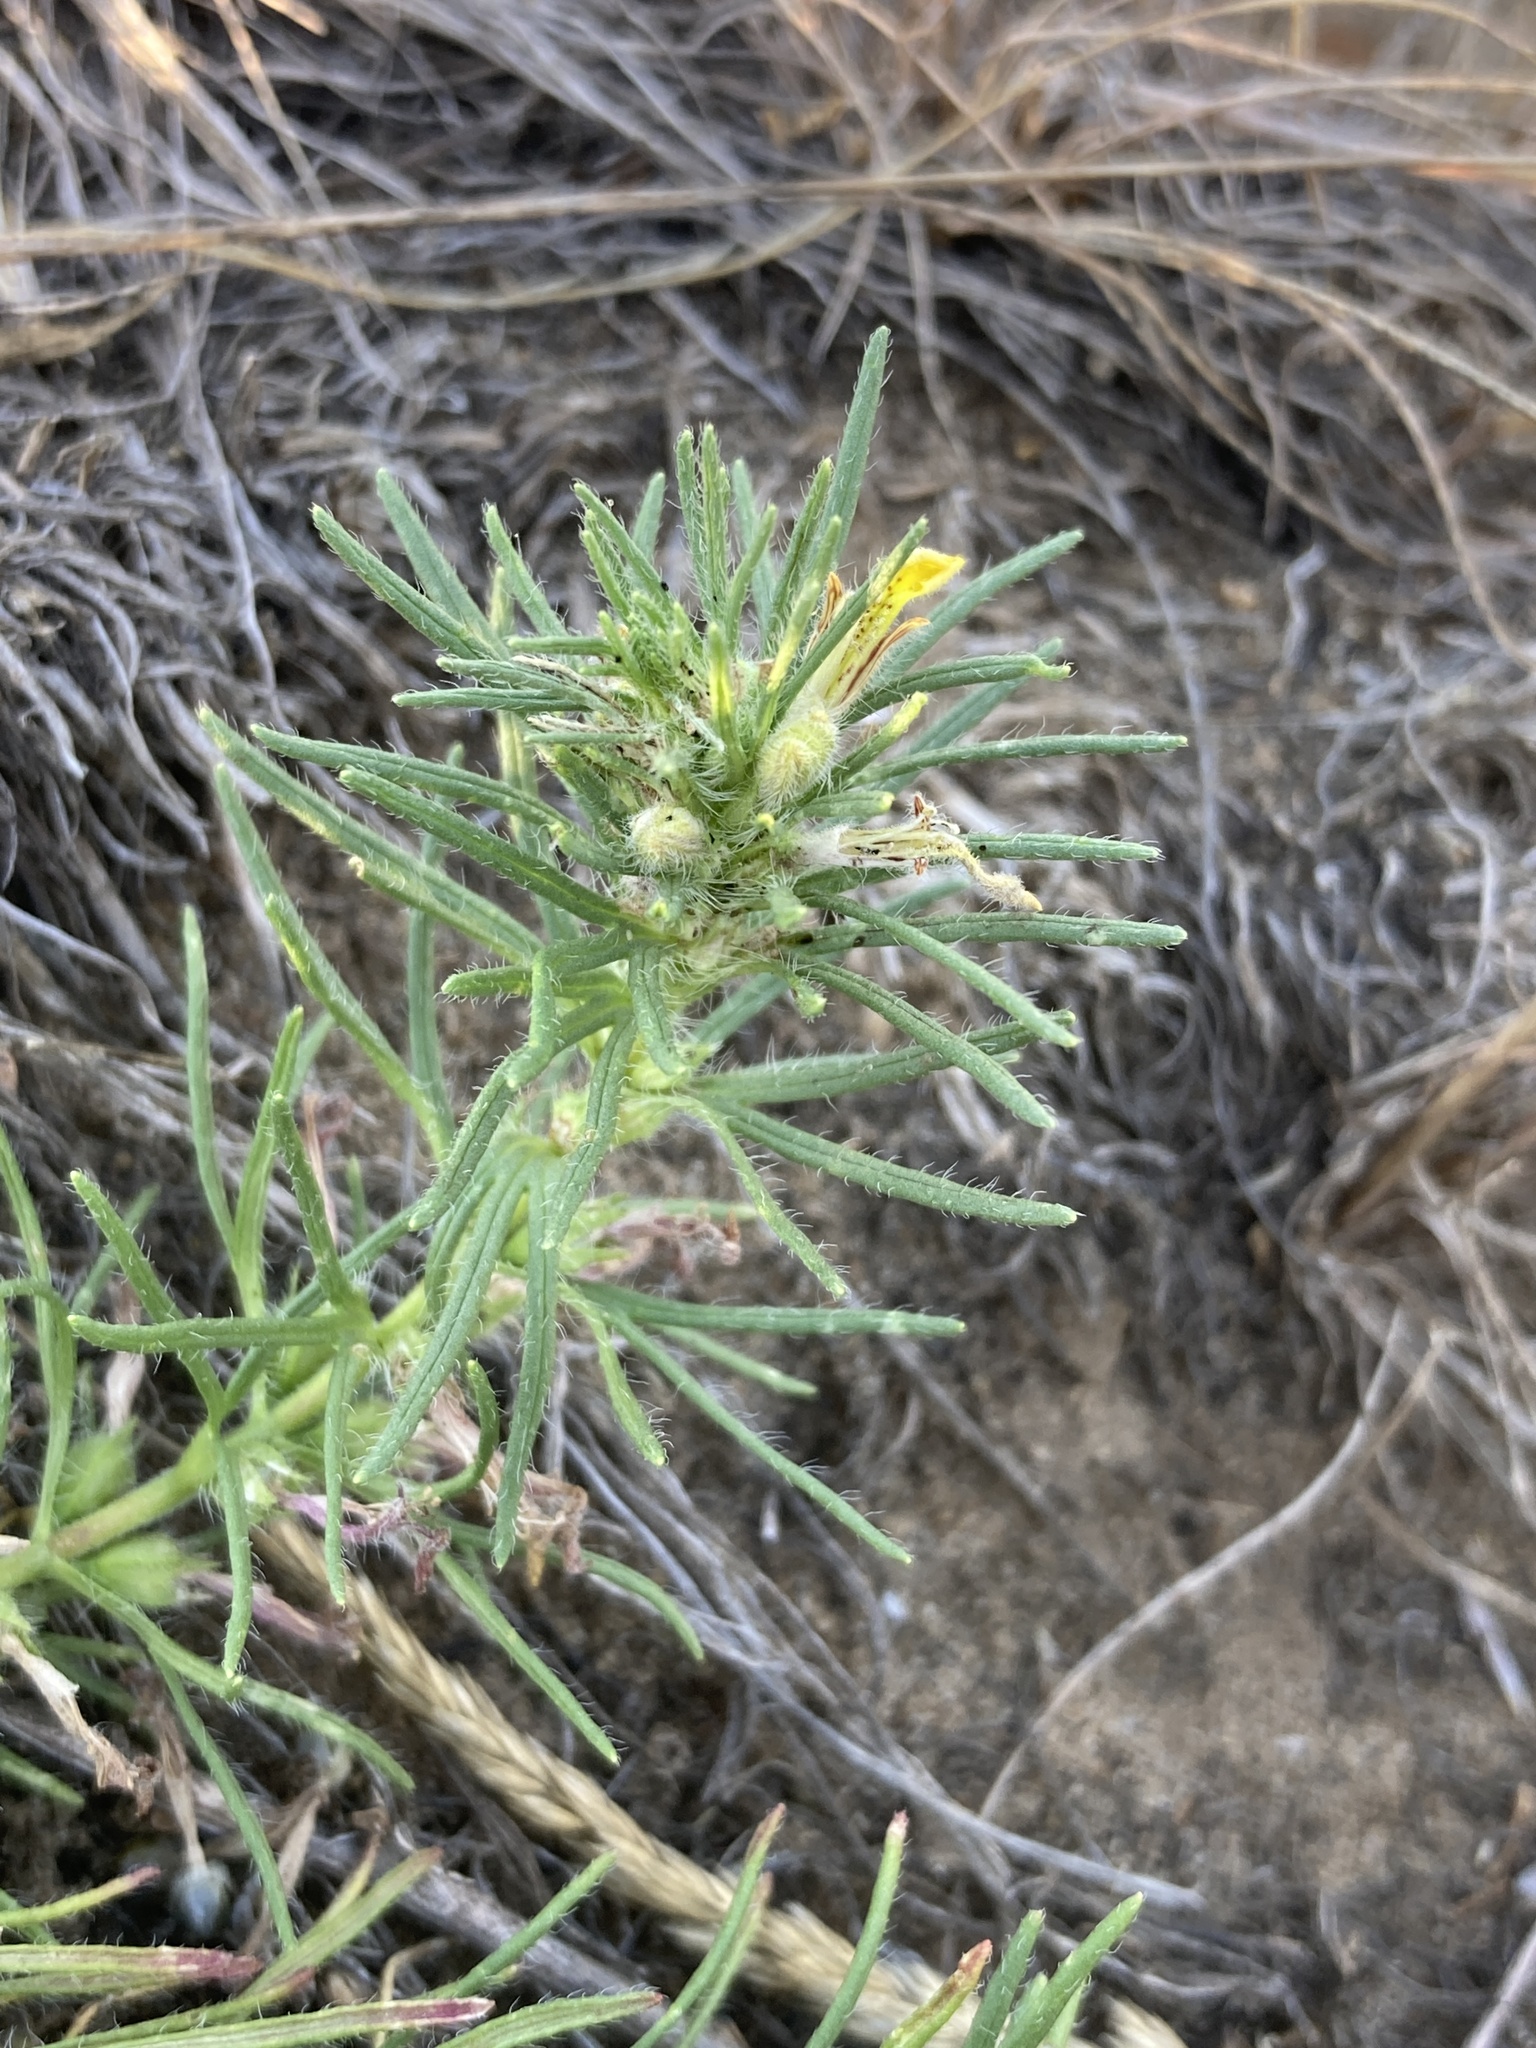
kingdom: Plantae
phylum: Tracheophyta
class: Magnoliopsida
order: Lamiales
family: Lamiaceae
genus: Ajuga
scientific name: Ajuga chamaepitys
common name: Ground-pine
